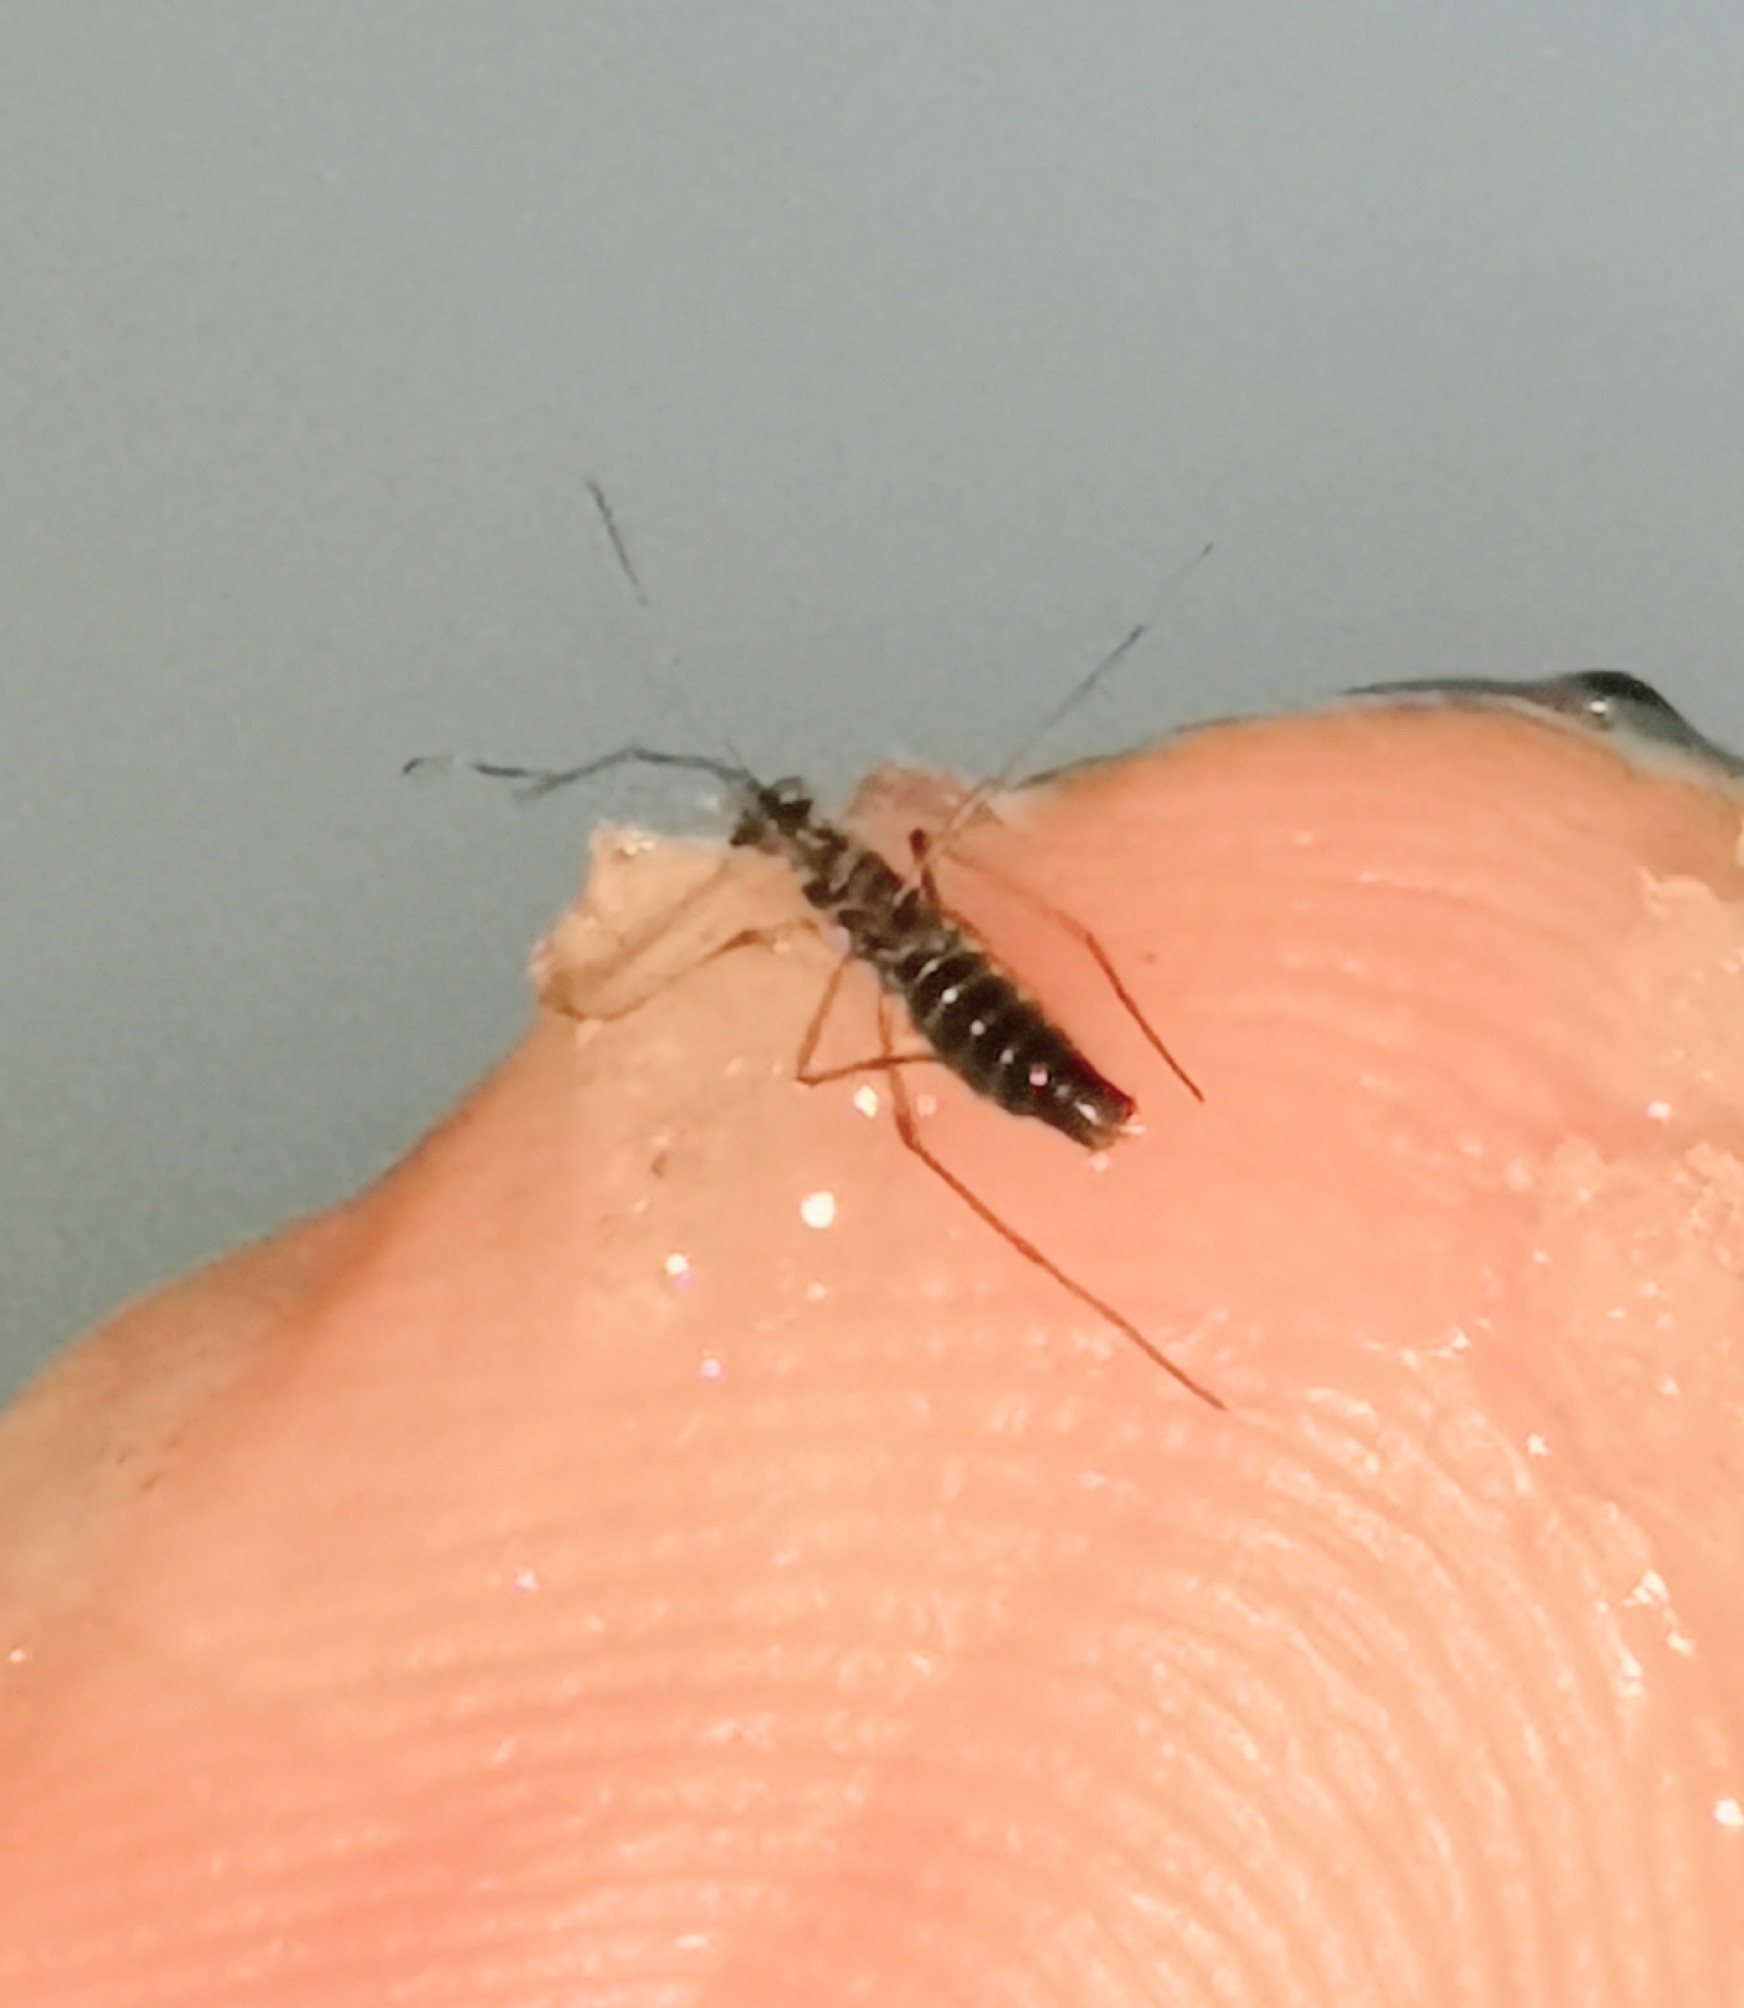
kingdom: Animalia
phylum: Arthropoda
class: Insecta
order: Mecoptera
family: Boreidae
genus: Boreus
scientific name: Boreus westwoodi
